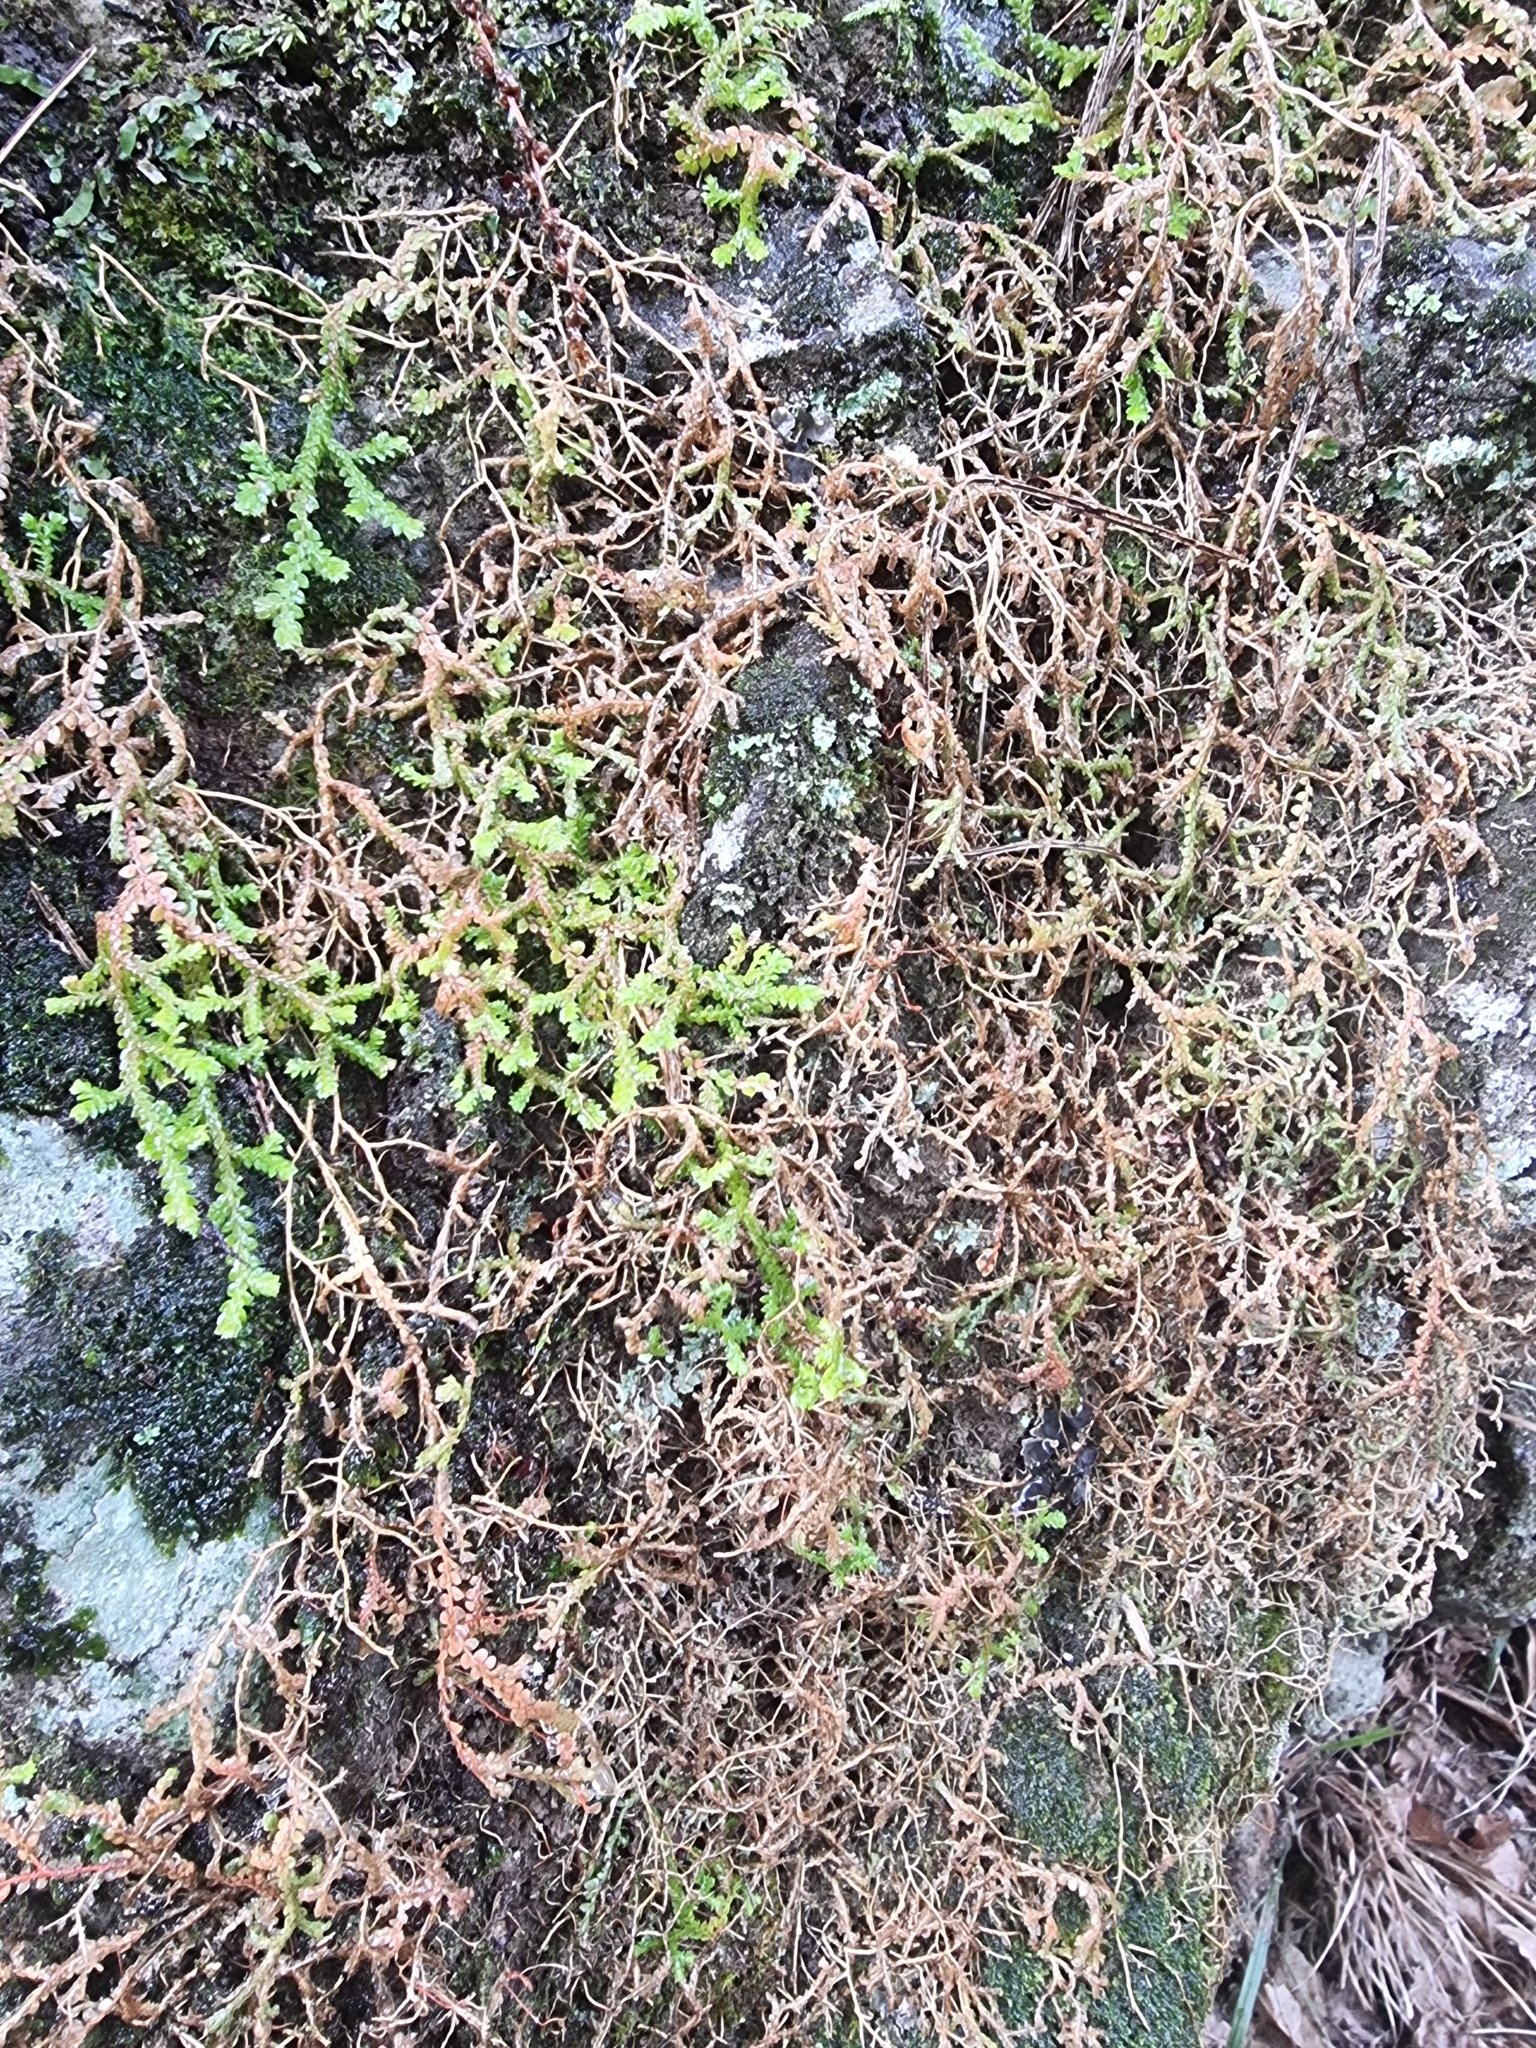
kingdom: Plantae
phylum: Tracheophyta
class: Lycopodiopsida
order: Selaginellales
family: Selaginellaceae
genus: Selaginella
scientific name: Selaginella denticulata
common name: Toothed-leaved clubmoss
